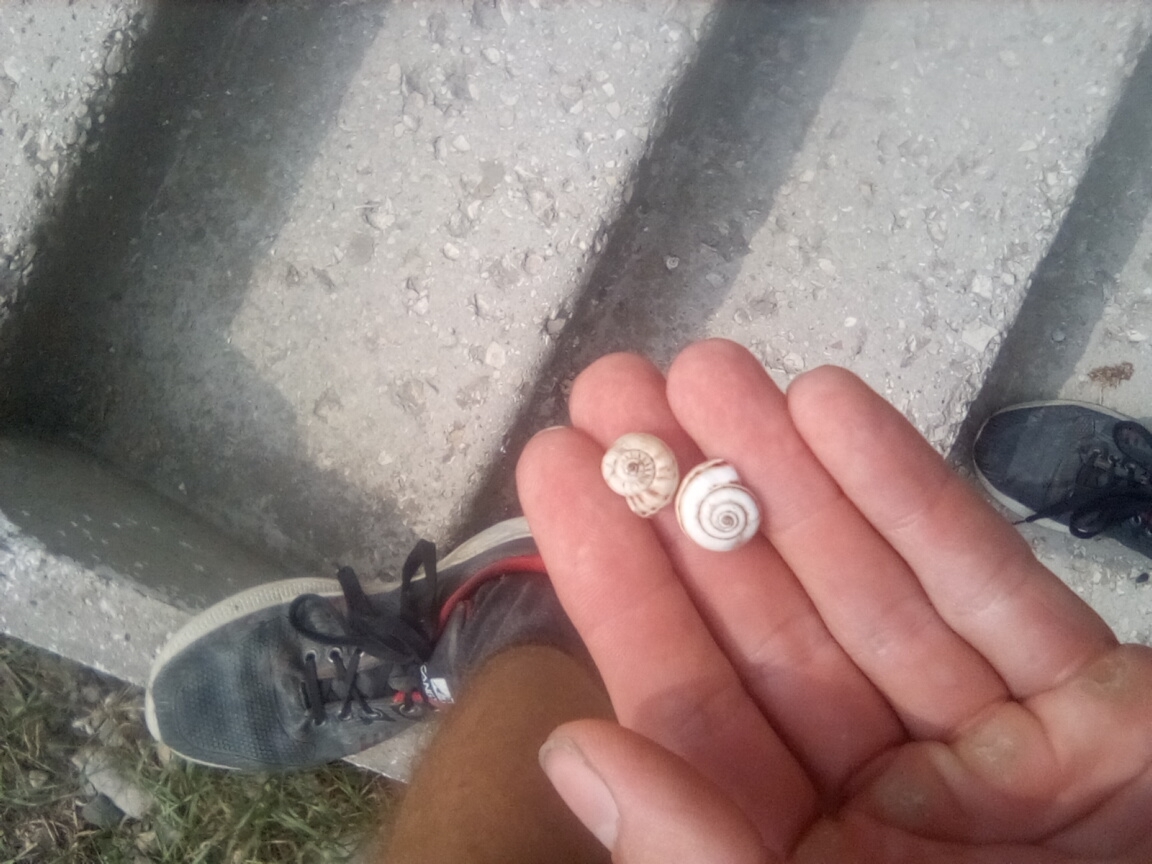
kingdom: Animalia
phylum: Mollusca
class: Gastropoda
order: Stylommatophora
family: Geomitridae
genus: Xeropicta
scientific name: Xeropicta derbentina
